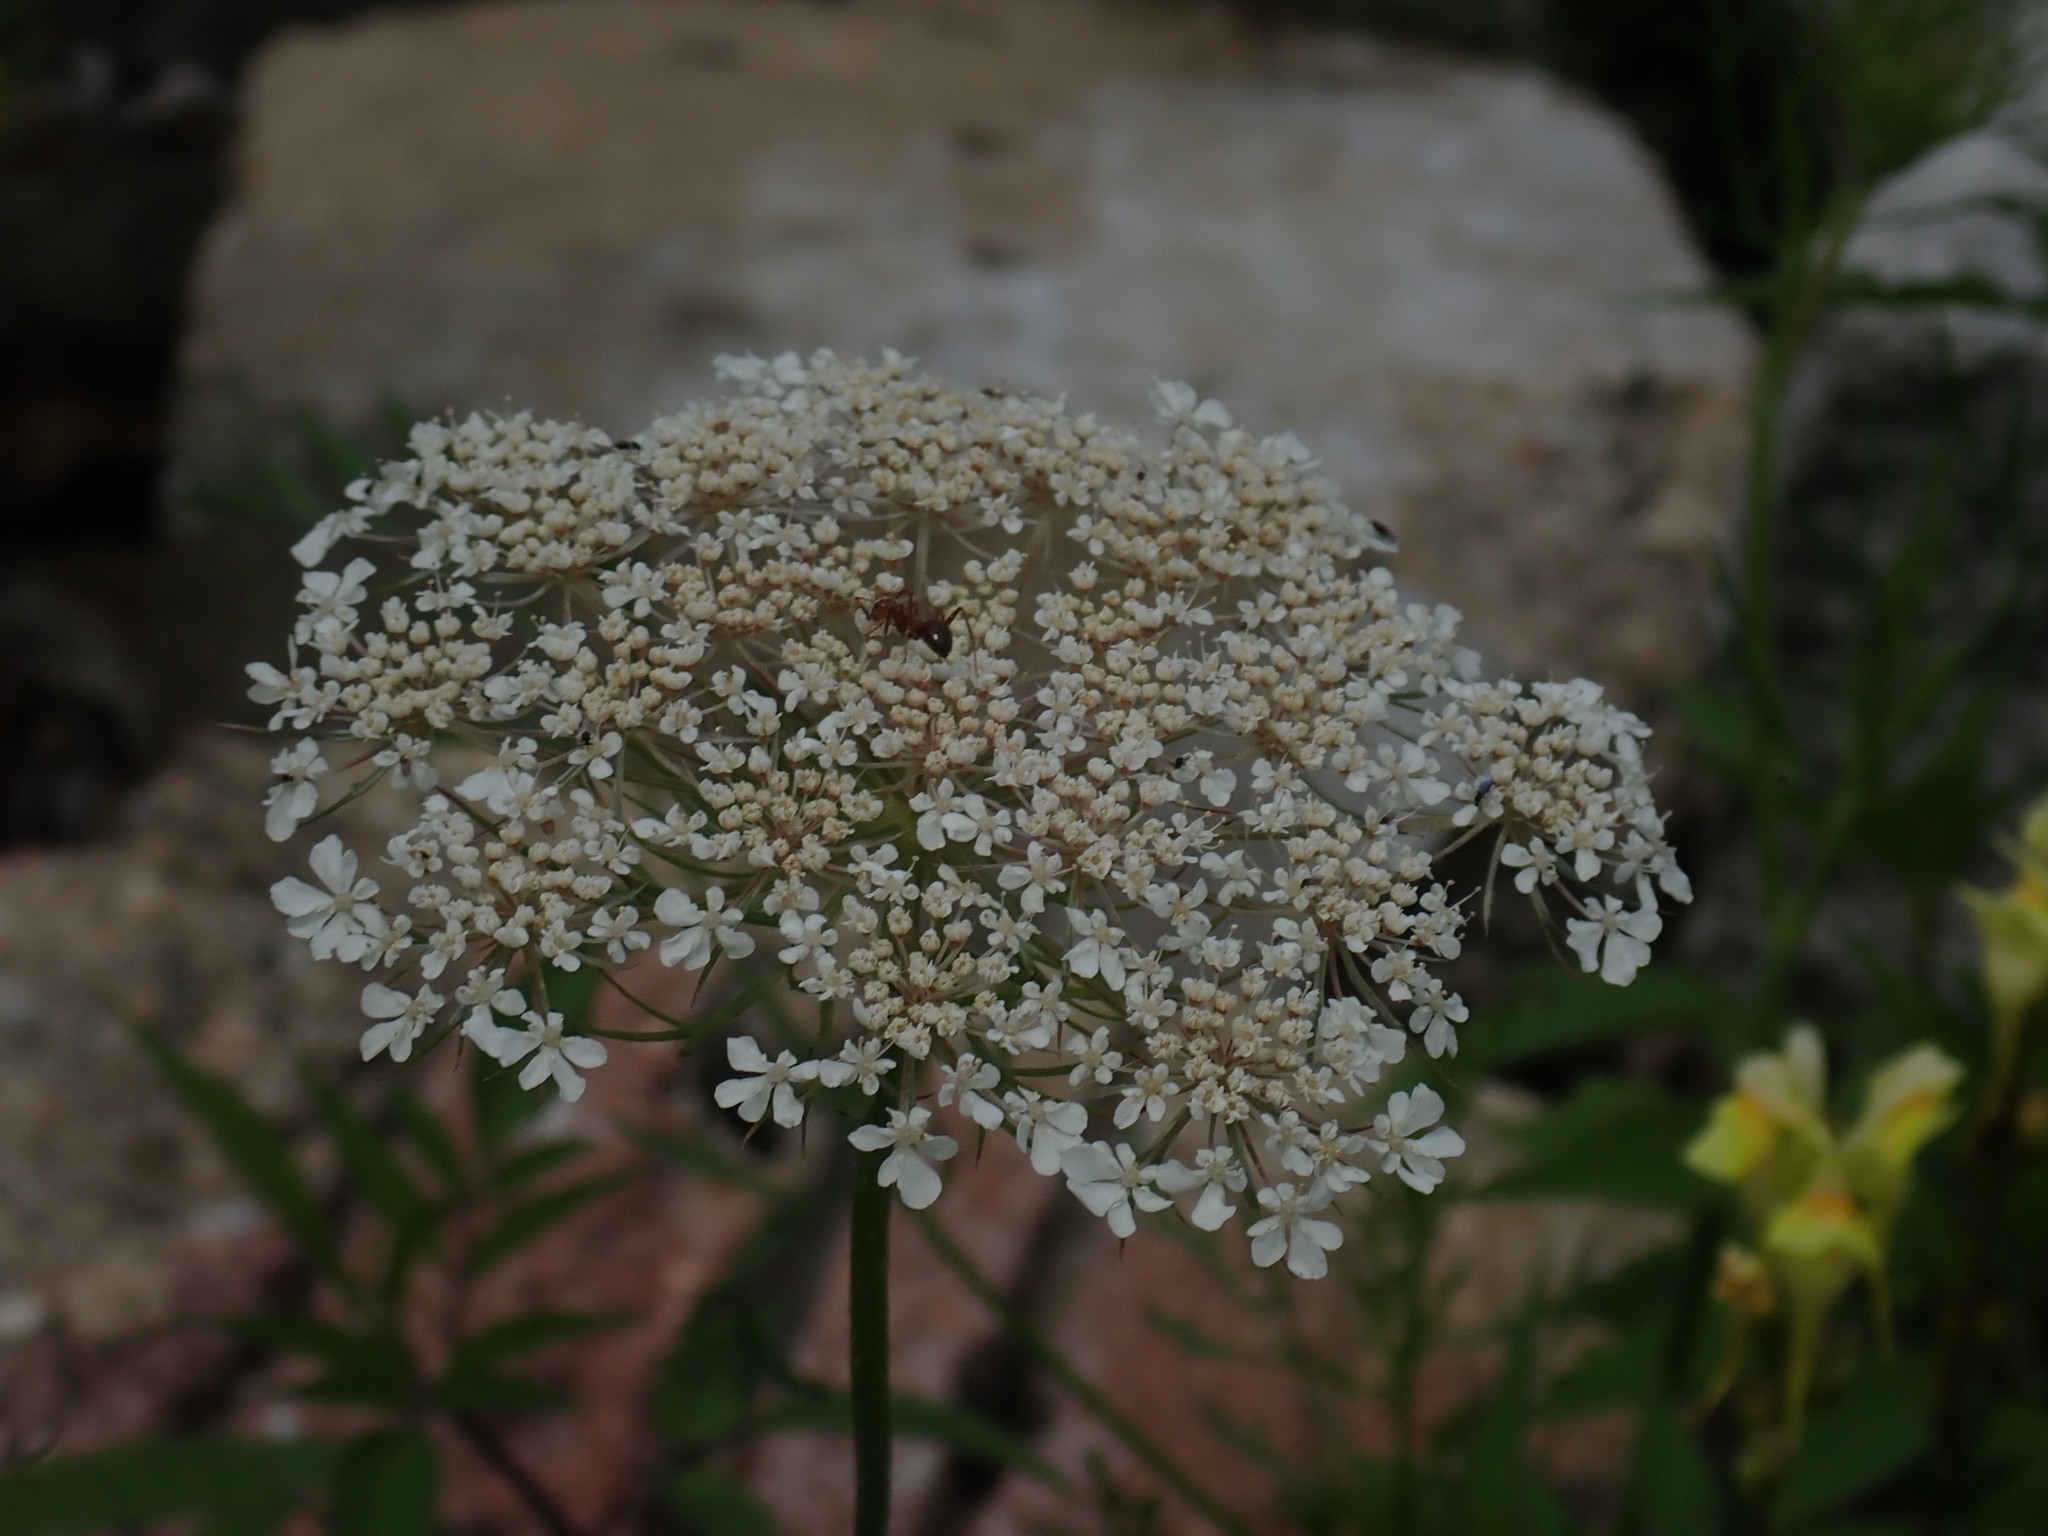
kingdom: Plantae
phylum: Tracheophyta
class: Magnoliopsida
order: Apiales
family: Apiaceae
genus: Daucus
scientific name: Daucus carota
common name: Wild carrot
